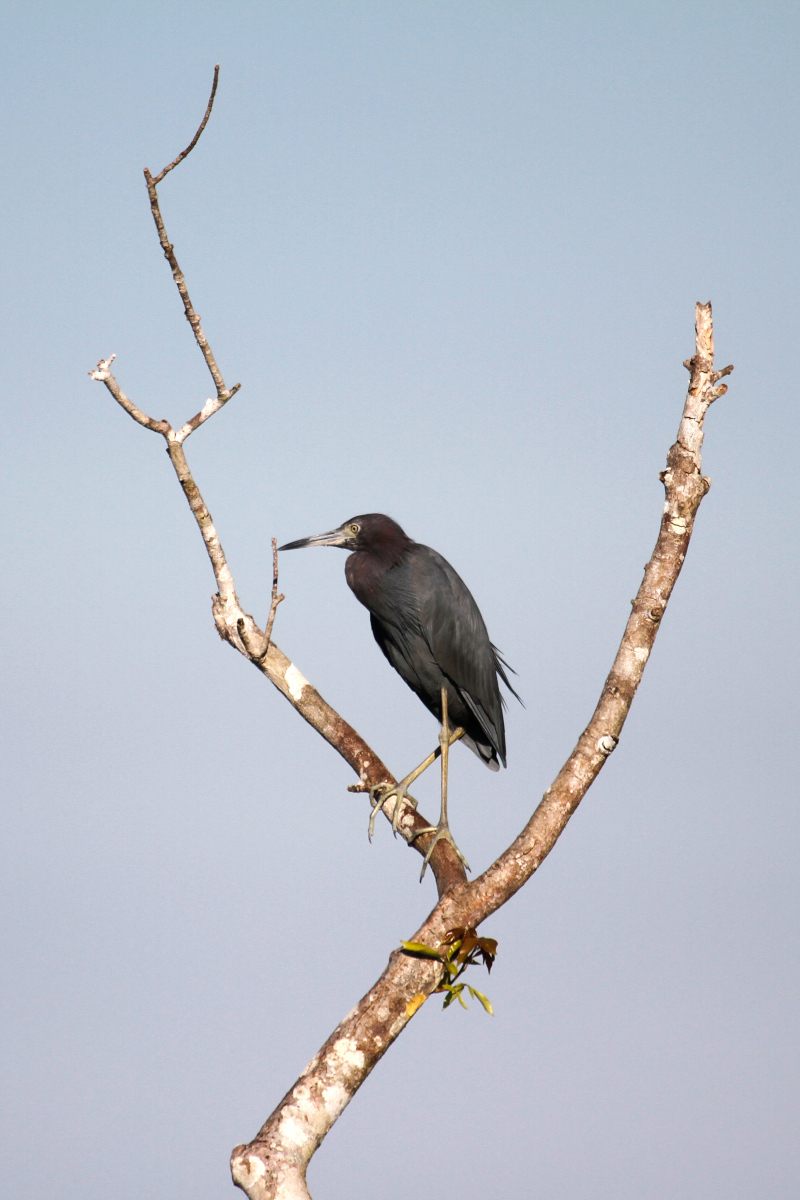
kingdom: Animalia
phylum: Chordata
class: Aves
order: Pelecaniformes
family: Ardeidae
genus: Egretta
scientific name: Egretta caerulea
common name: Little blue heron
